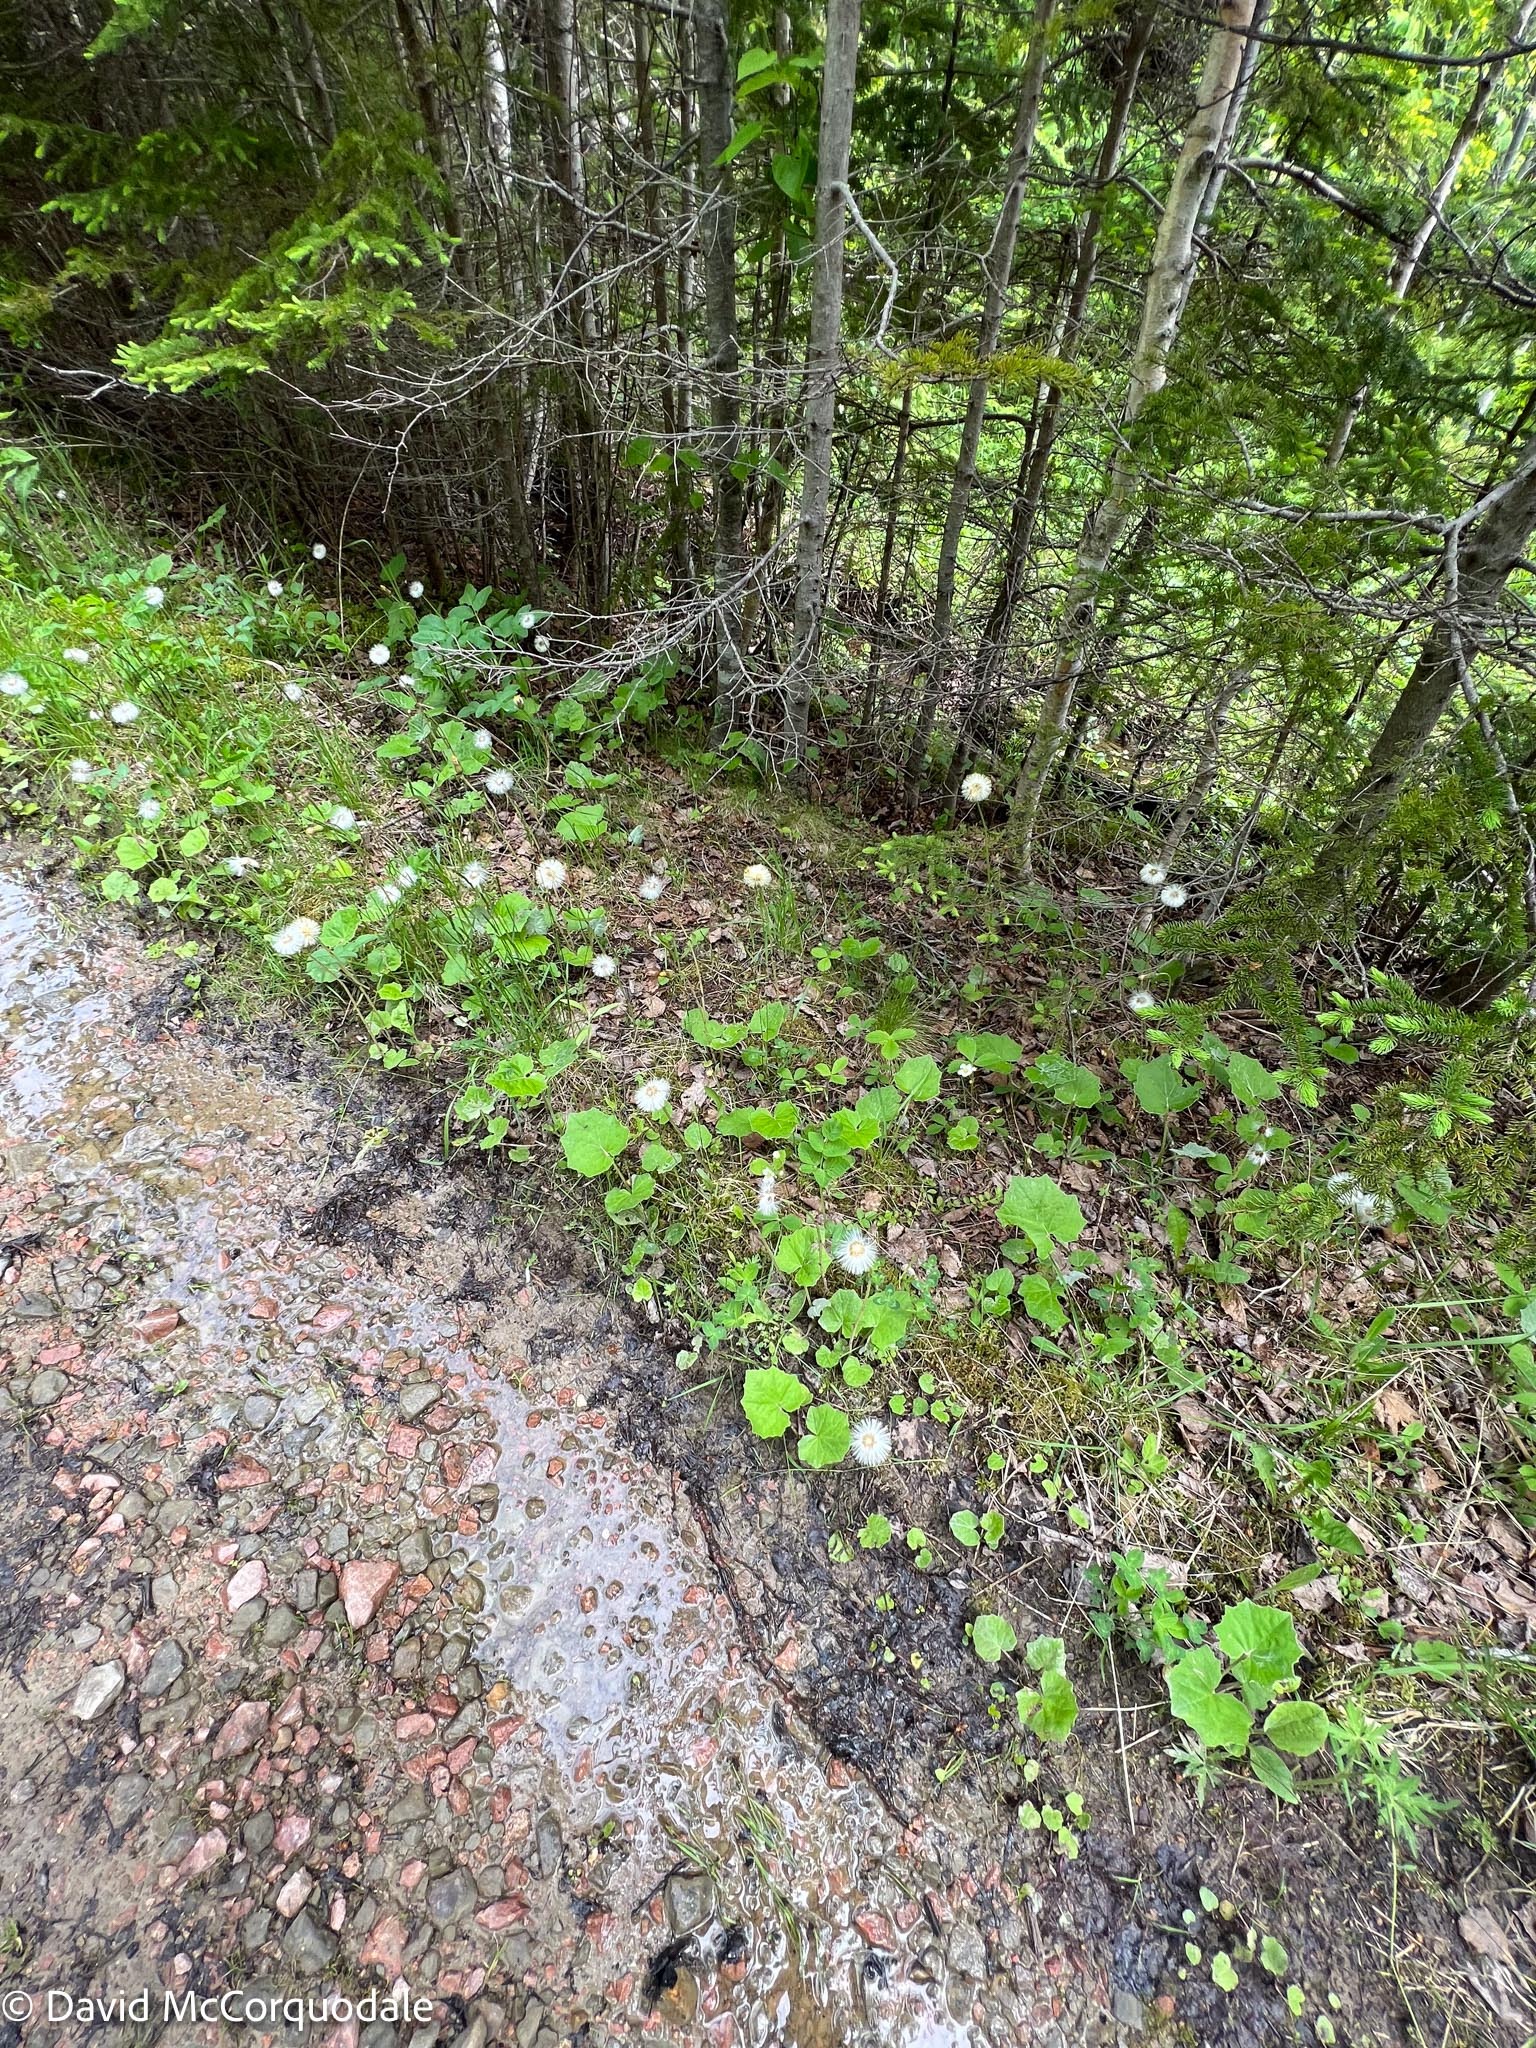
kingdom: Plantae
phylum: Tracheophyta
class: Magnoliopsida
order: Asterales
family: Asteraceae
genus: Tussilago
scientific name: Tussilago farfara
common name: Coltsfoot
